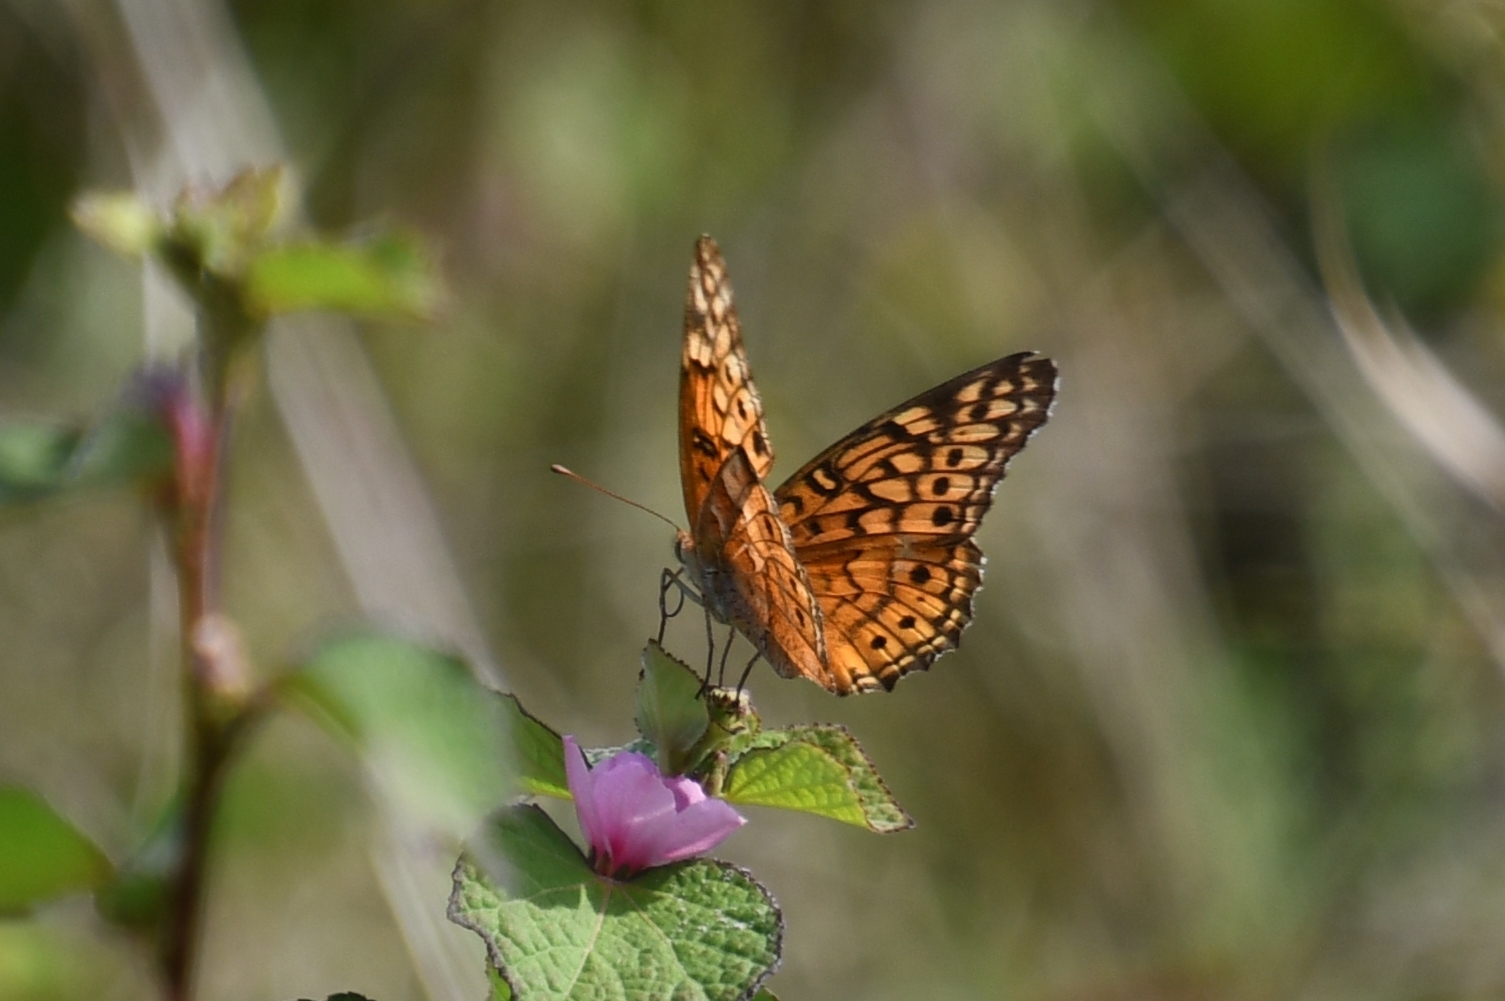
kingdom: Animalia
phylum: Arthropoda
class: Insecta
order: Lepidoptera
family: Nymphalidae
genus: Euptoieta
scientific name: Euptoieta claudia
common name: Variegated fritillary
